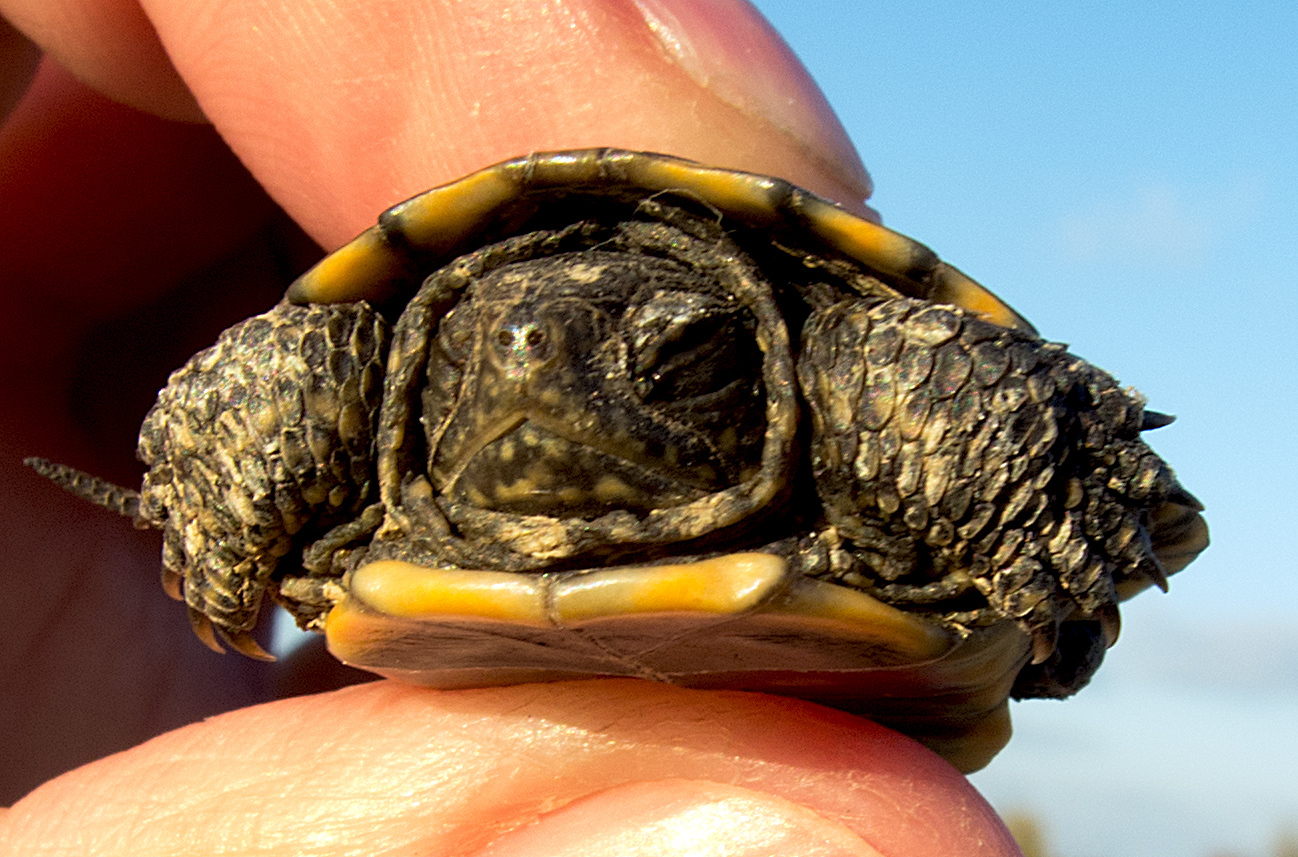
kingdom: Animalia
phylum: Chordata
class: Testudines
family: Emydidae
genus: Emys
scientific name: Emys orbicularis
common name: European pond turtle
